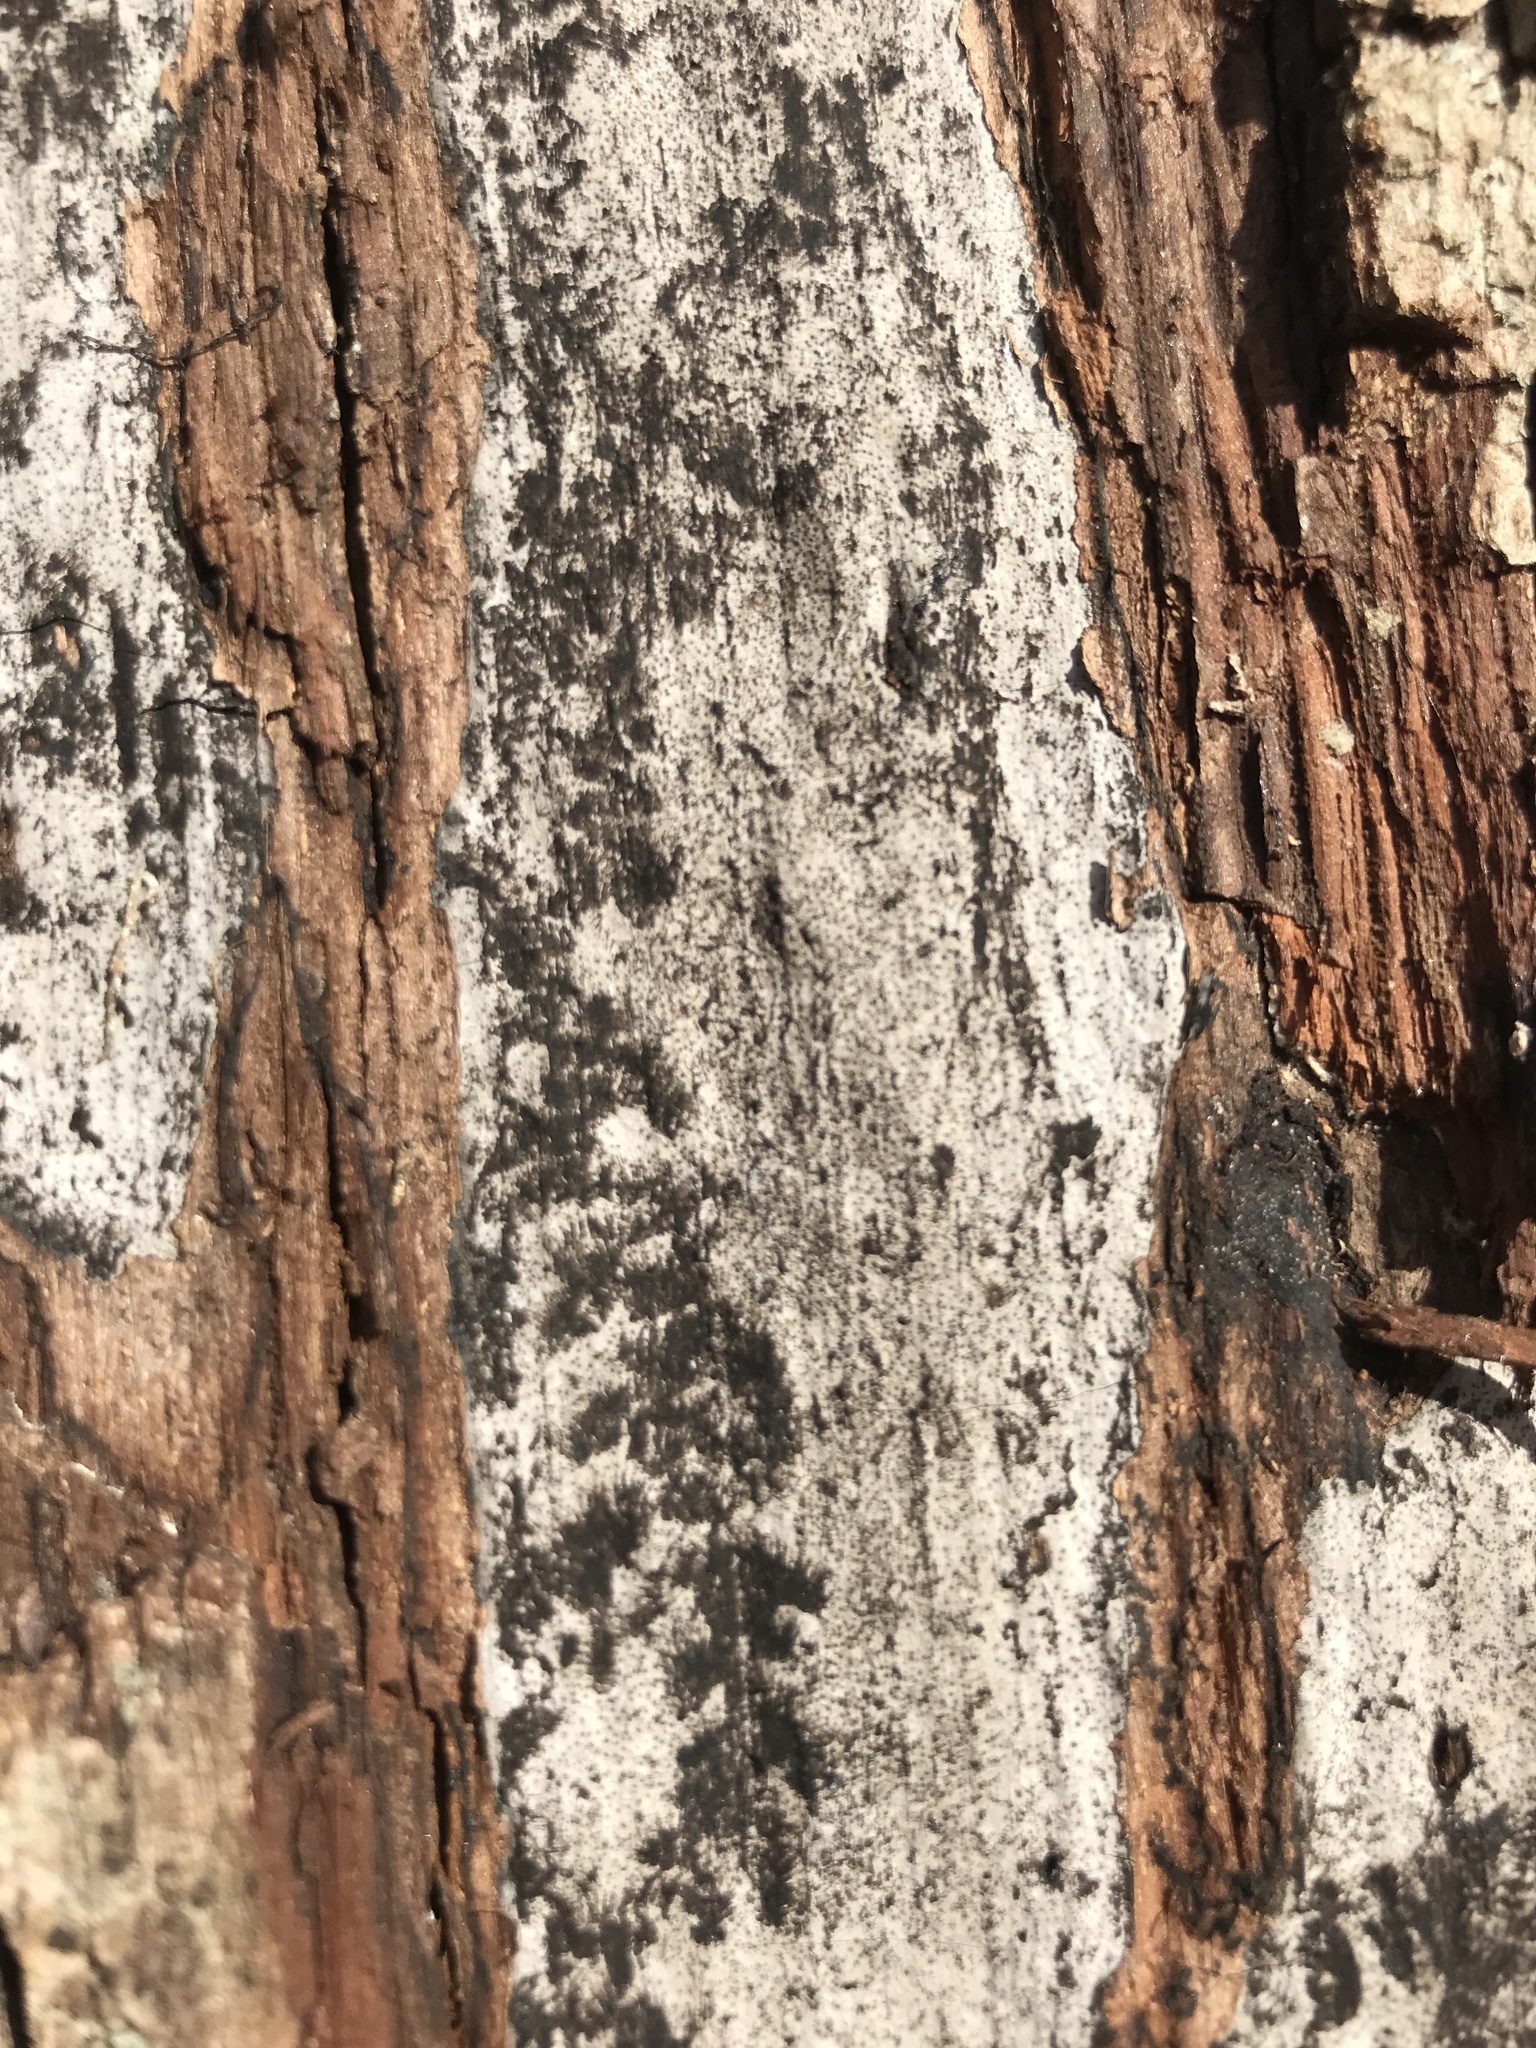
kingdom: Fungi
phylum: Ascomycota
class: Sordariomycetes
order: Xylariales
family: Graphostromataceae
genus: Biscogniauxia
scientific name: Biscogniauxia atropunctata
